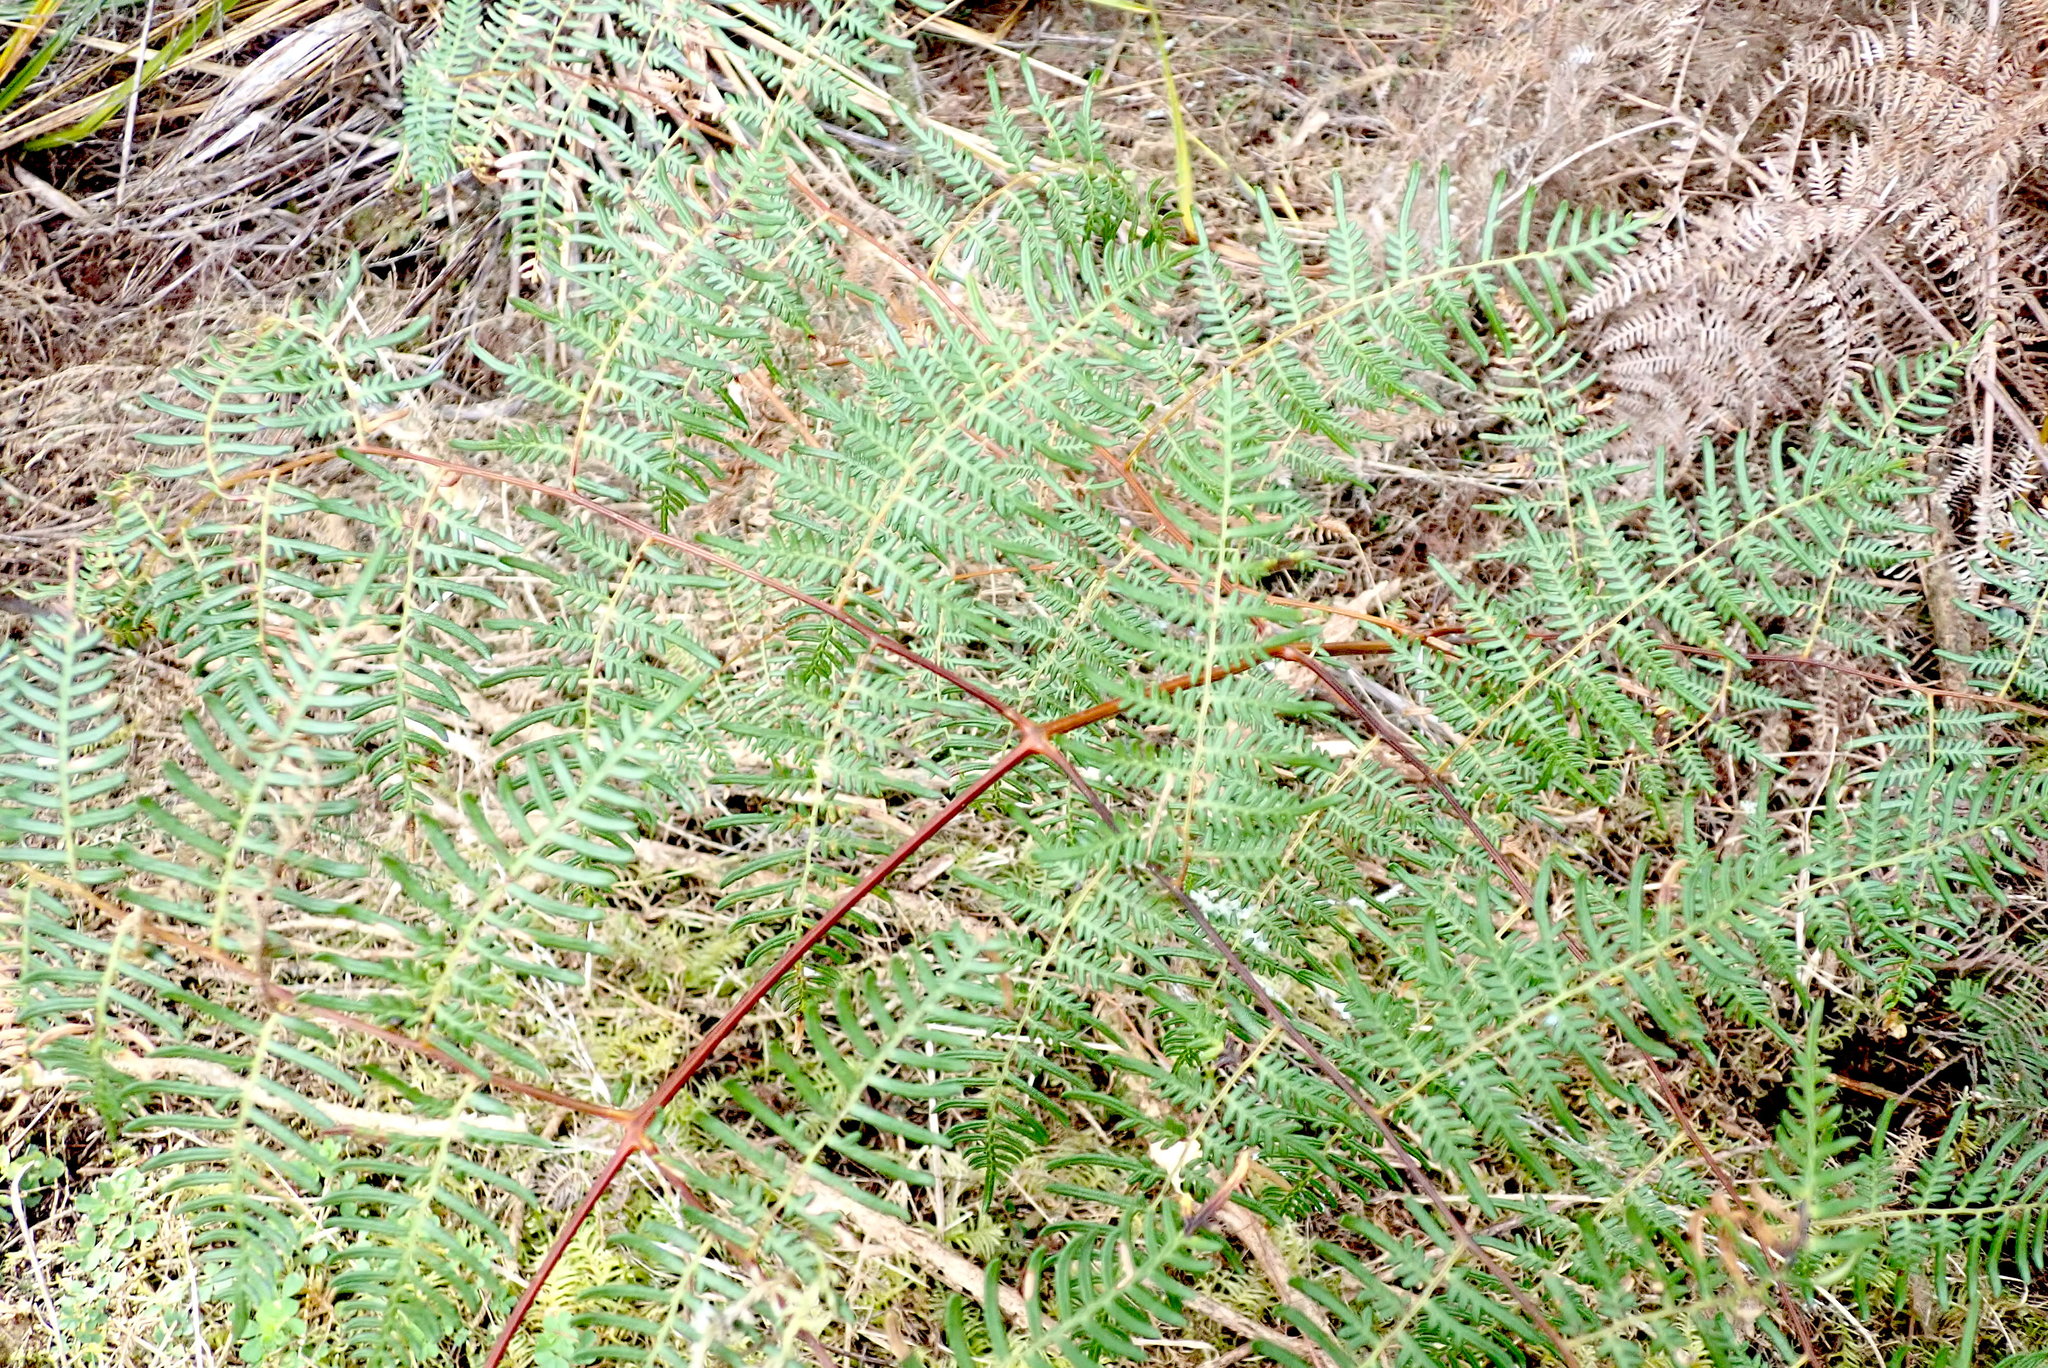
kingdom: Plantae
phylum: Tracheophyta
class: Polypodiopsida
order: Polypodiales
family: Dennstaedtiaceae
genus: Pteridium
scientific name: Pteridium esculentum
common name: Bracken fern
